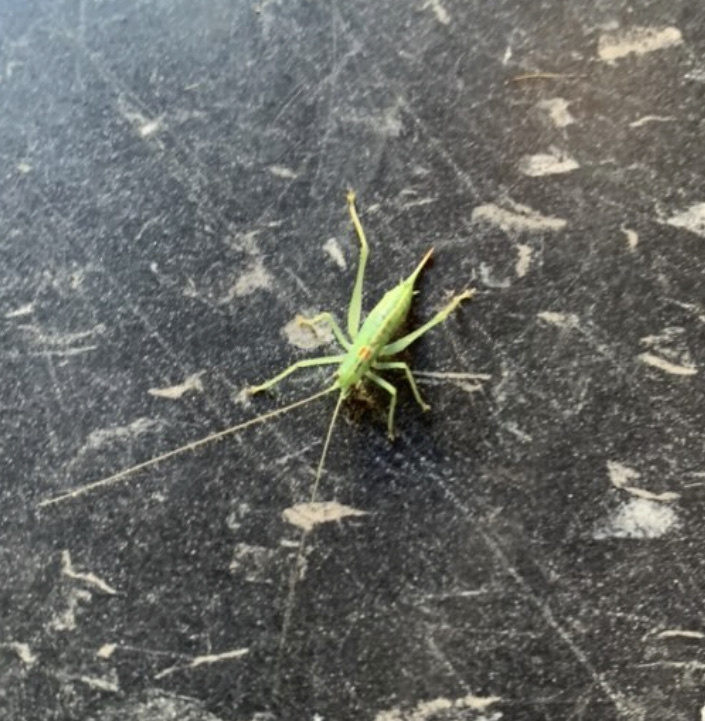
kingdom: Animalia
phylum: Arthropoda
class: Insecta
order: Orthoptera
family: Tettigoniidae
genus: Meconema
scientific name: Meconema meridionale
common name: Southern oak bush-cricket
